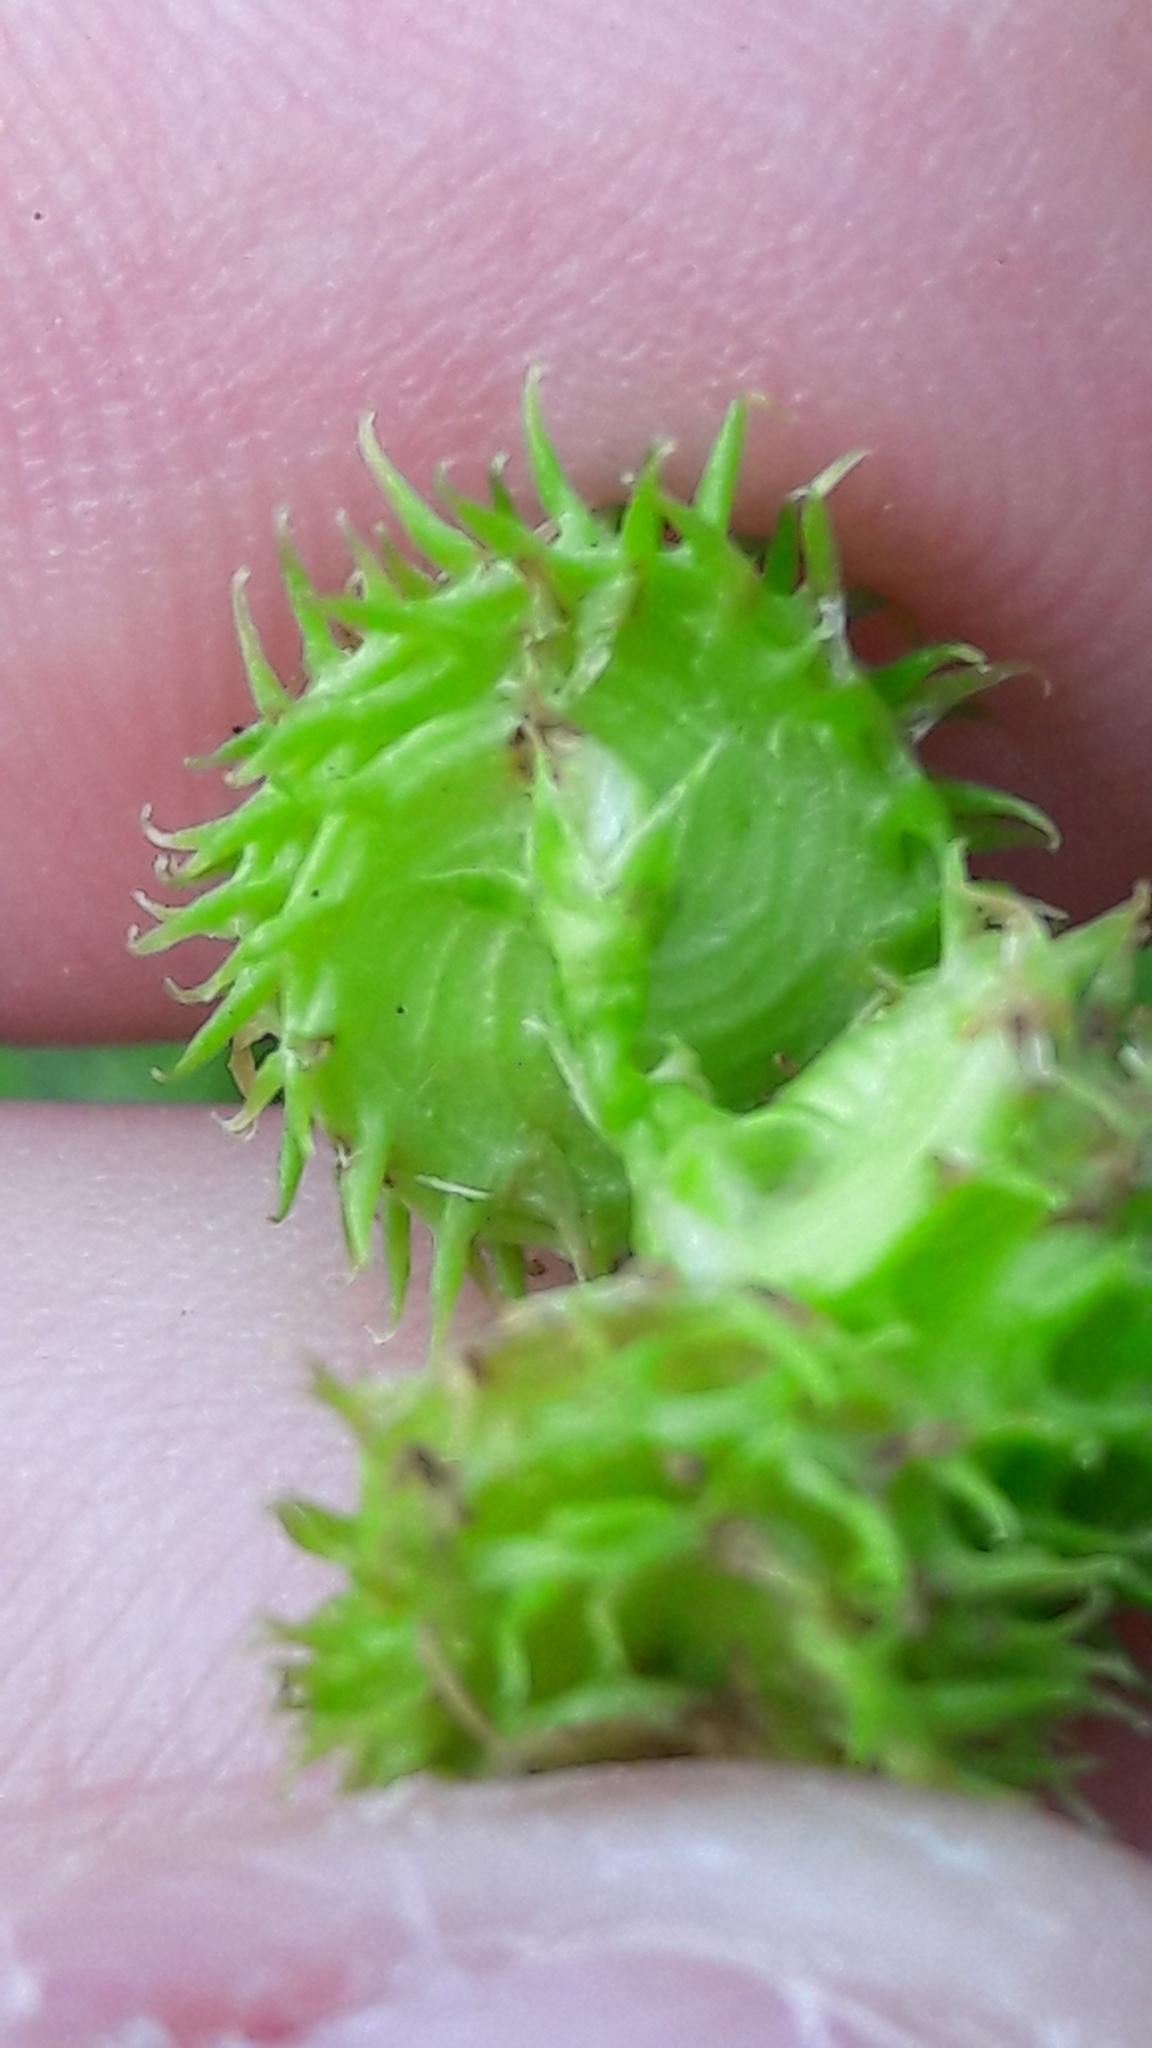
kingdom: Plantae
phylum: Tracheophyta
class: Magnoliopsida
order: Fabales
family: Fabaceae
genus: Medicago
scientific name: Medicago polymorpha
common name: Burclover
